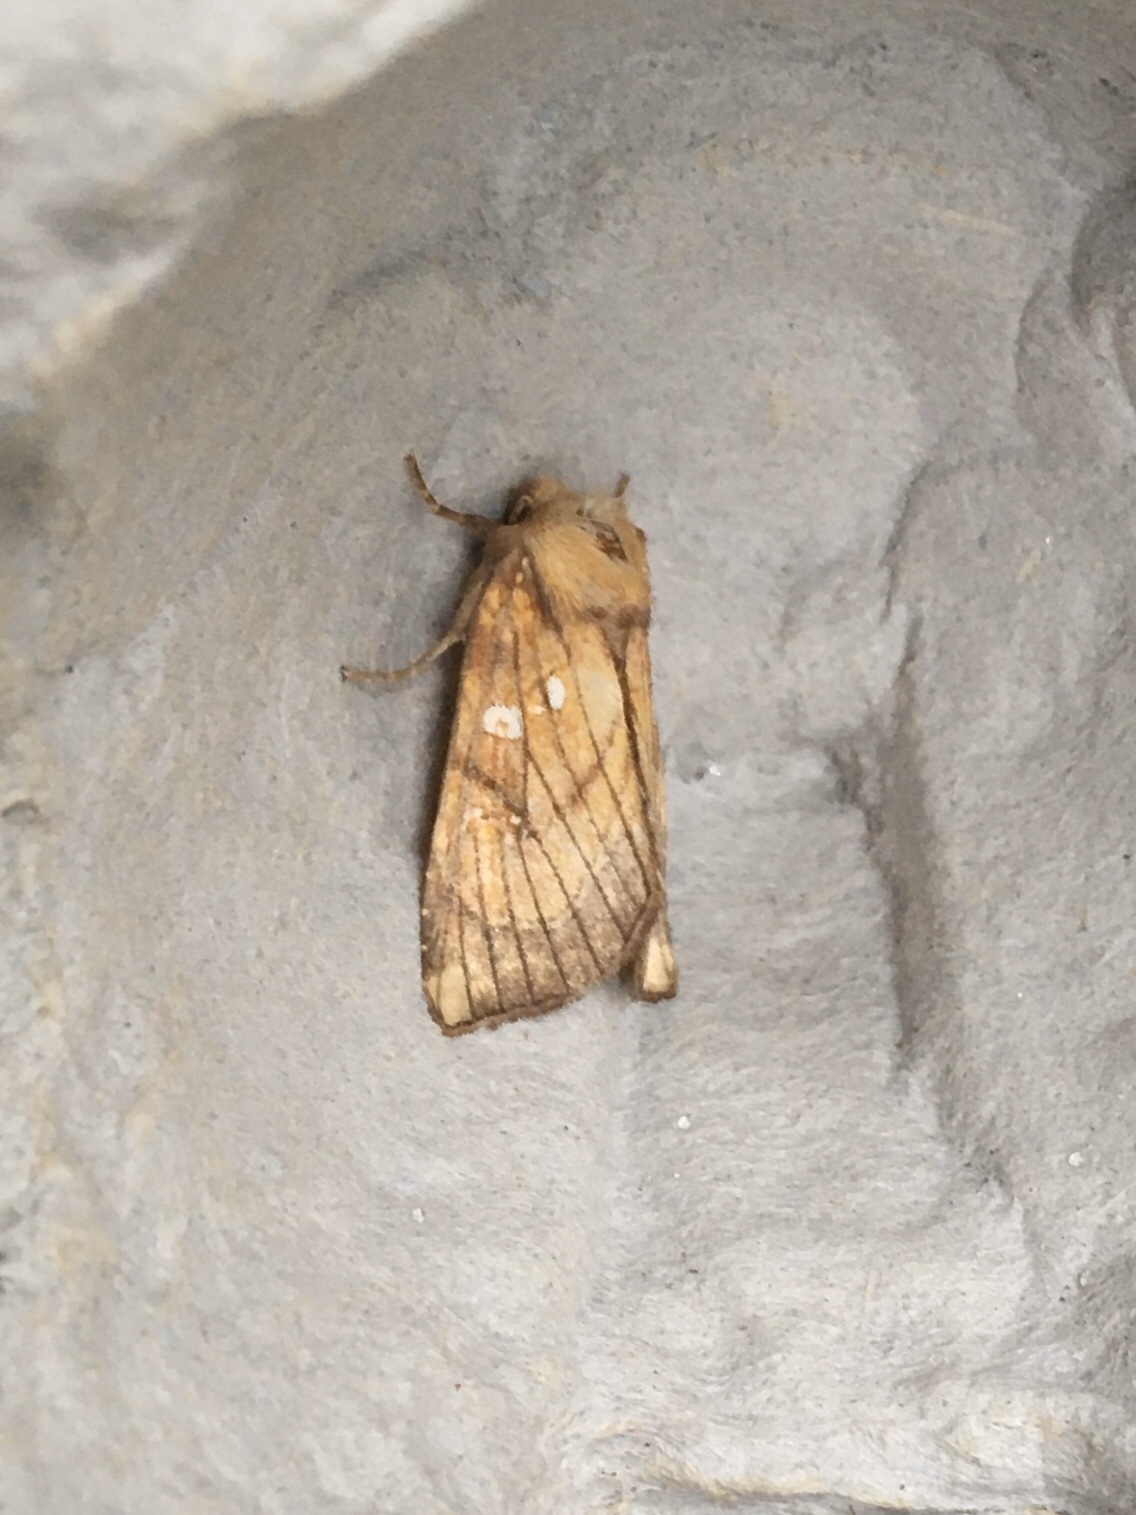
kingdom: Animalia
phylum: Arthropoda
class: Insecta
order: Lepidoptera
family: Noctuidae
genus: Papaipema
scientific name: Papaipema inquaesita
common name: Sensitive fern borer moth
